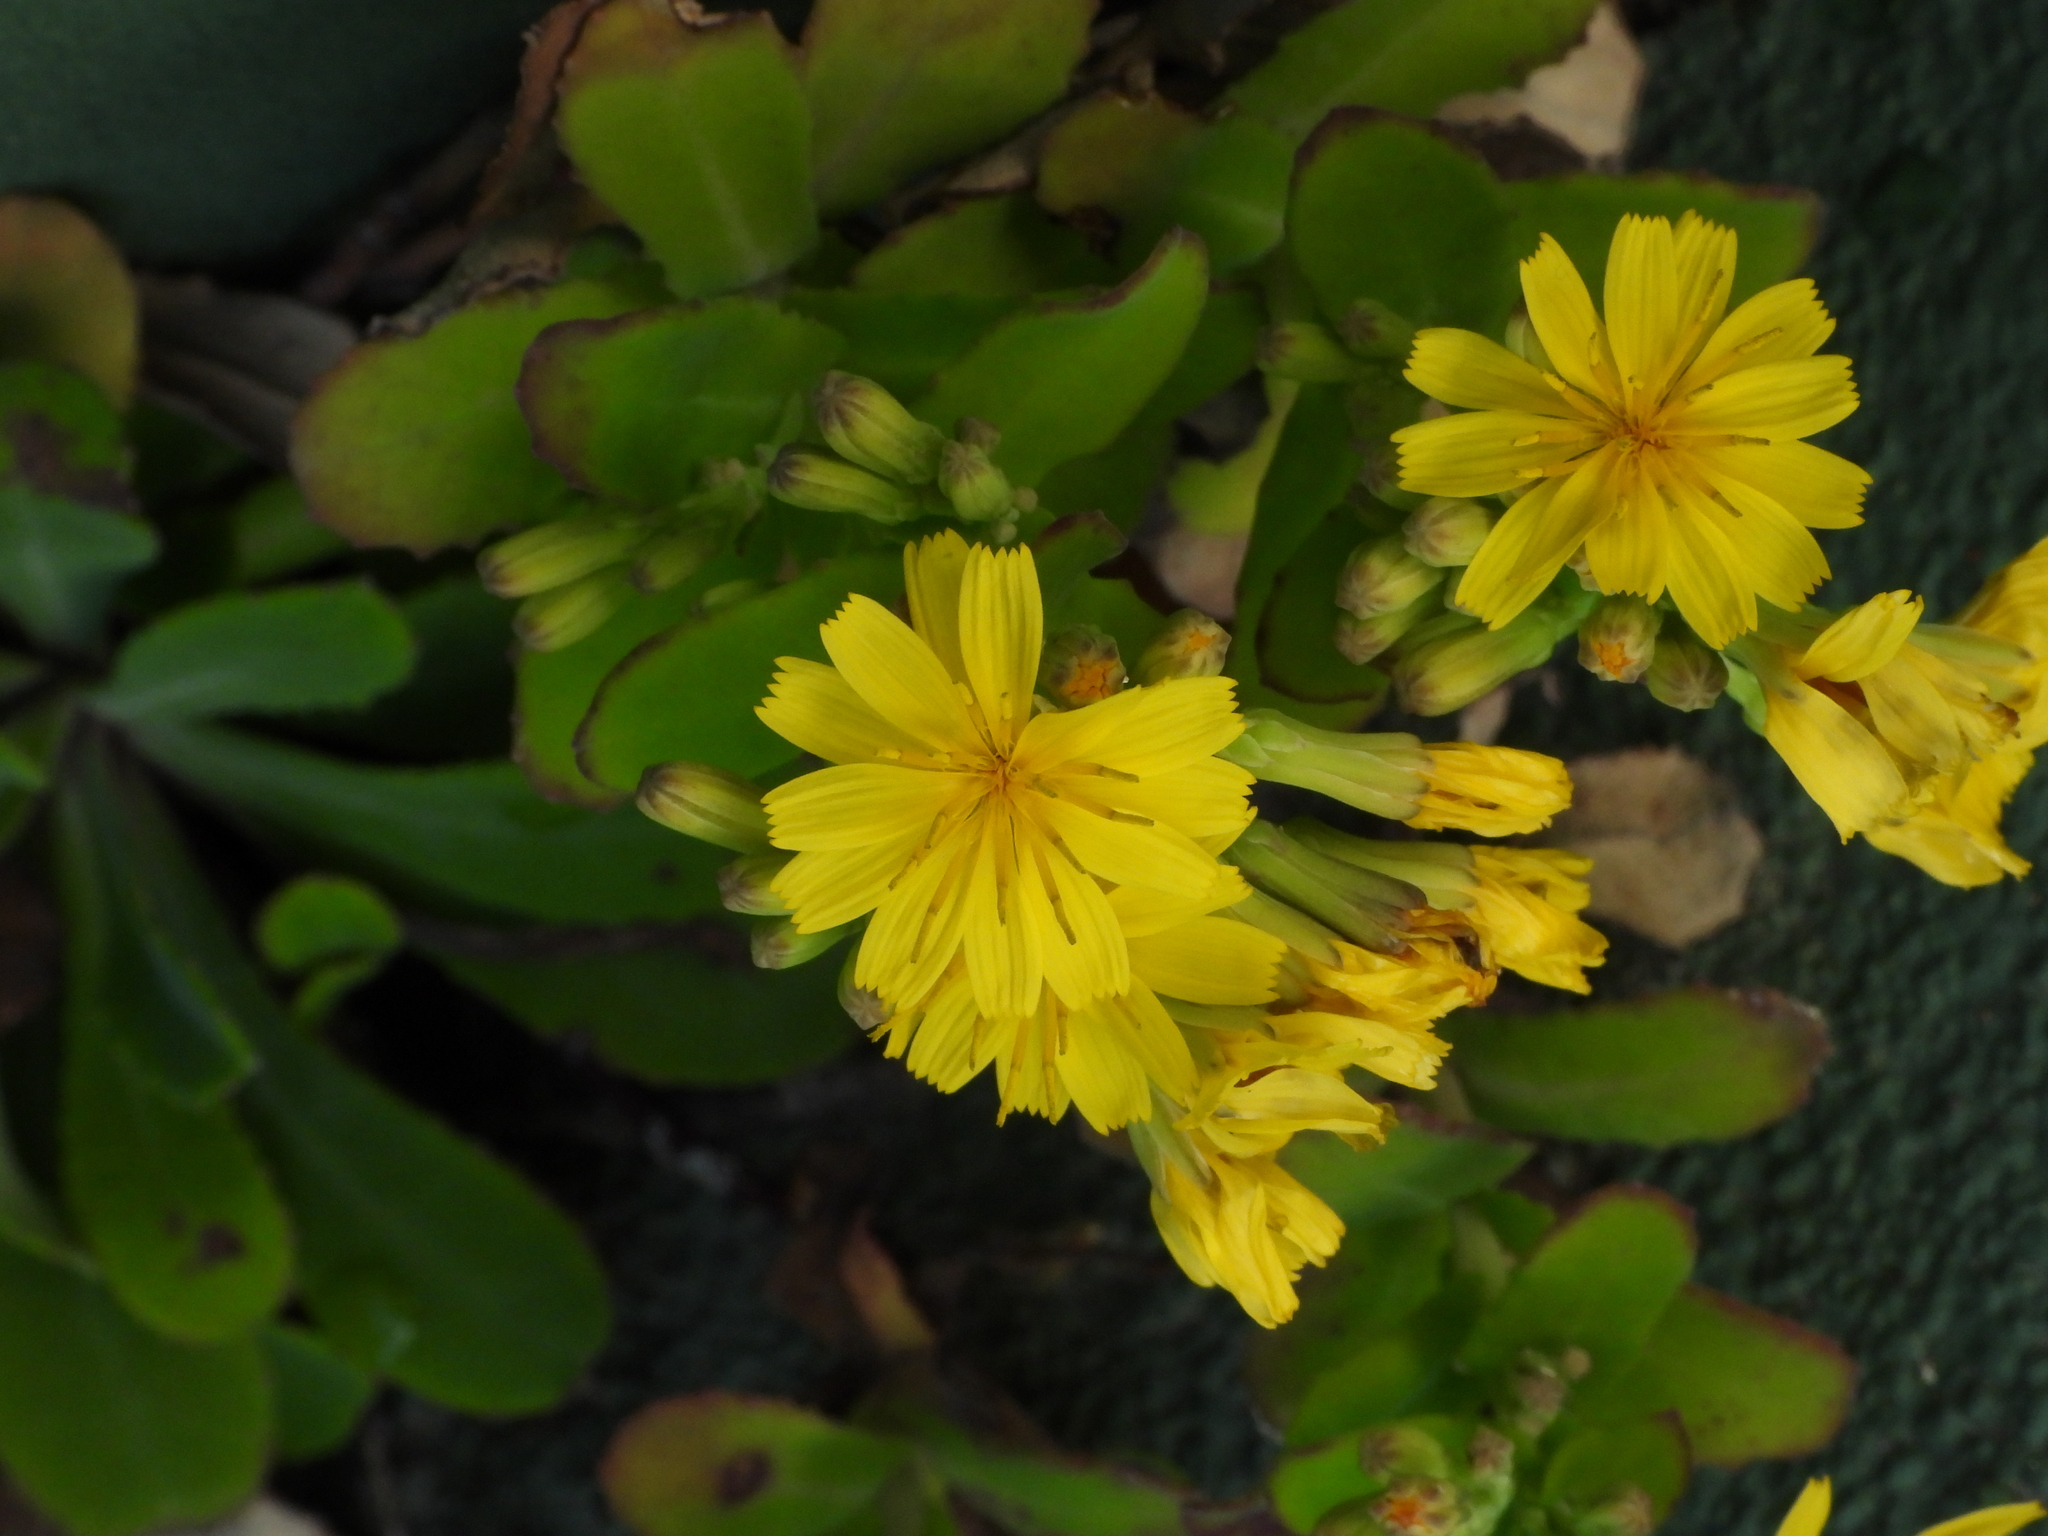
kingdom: Plantae
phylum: Tracheophyta
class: Magnoliopsida
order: Asterales
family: Asteraceae
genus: Crepidiastrum
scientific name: Crepidiastrum keiskeanum
